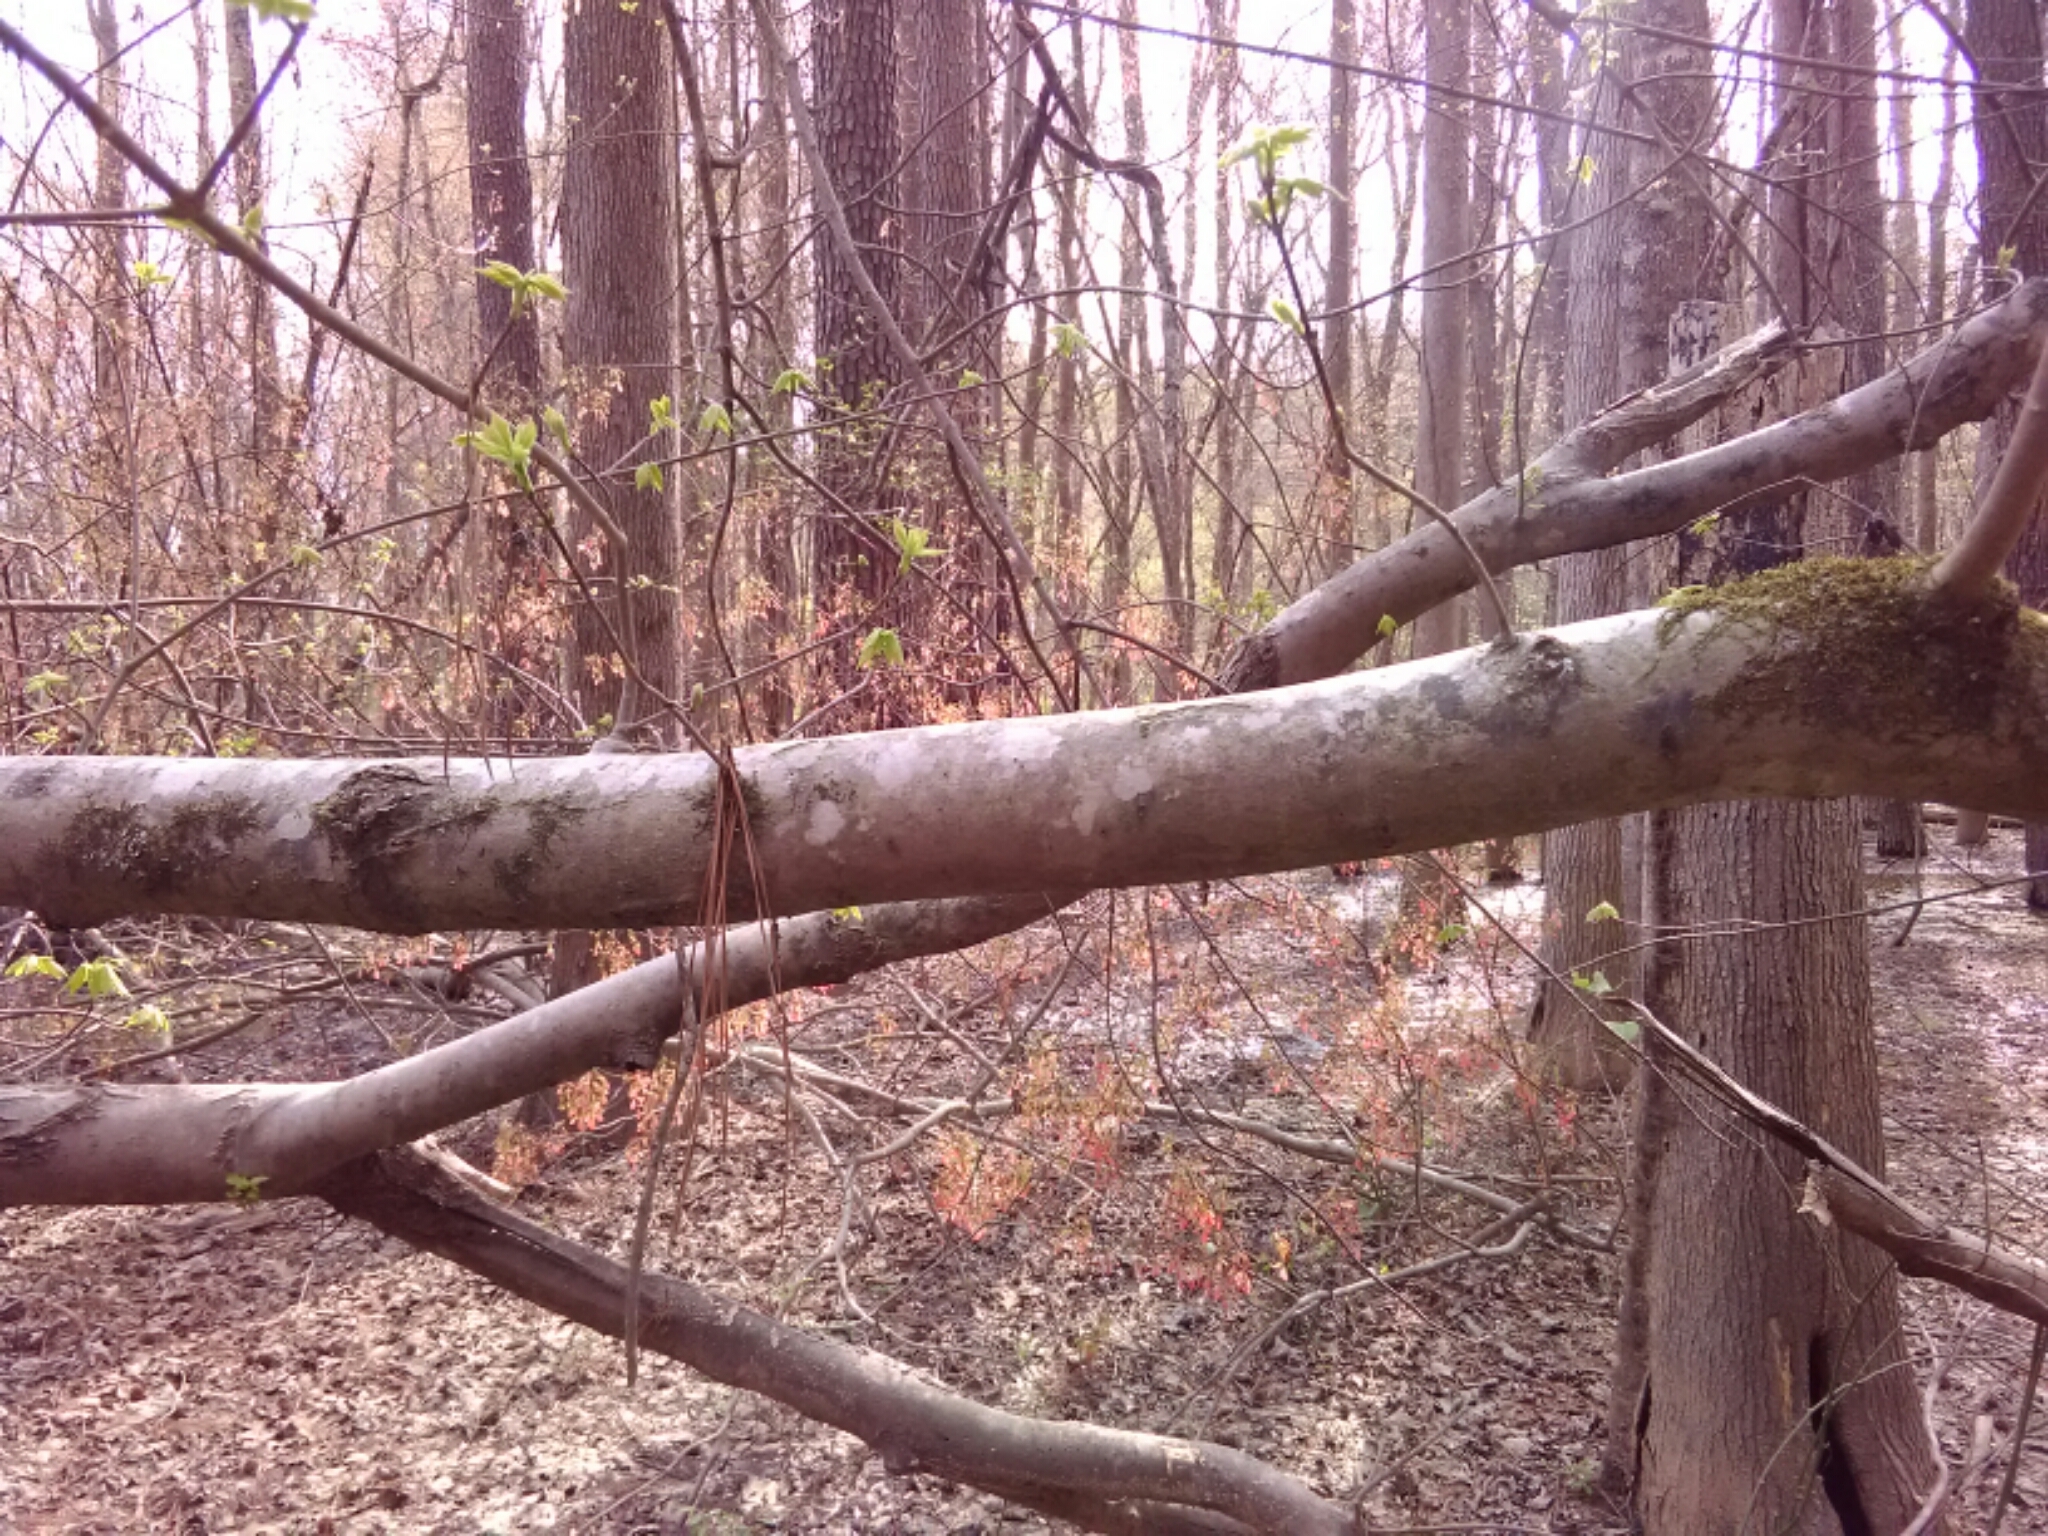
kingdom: Plantae
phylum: Tracheophyta
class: Magnoliopsida
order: Sapindales
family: Sapindaceae
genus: Acer
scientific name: Acer rubrum
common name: Red maple
